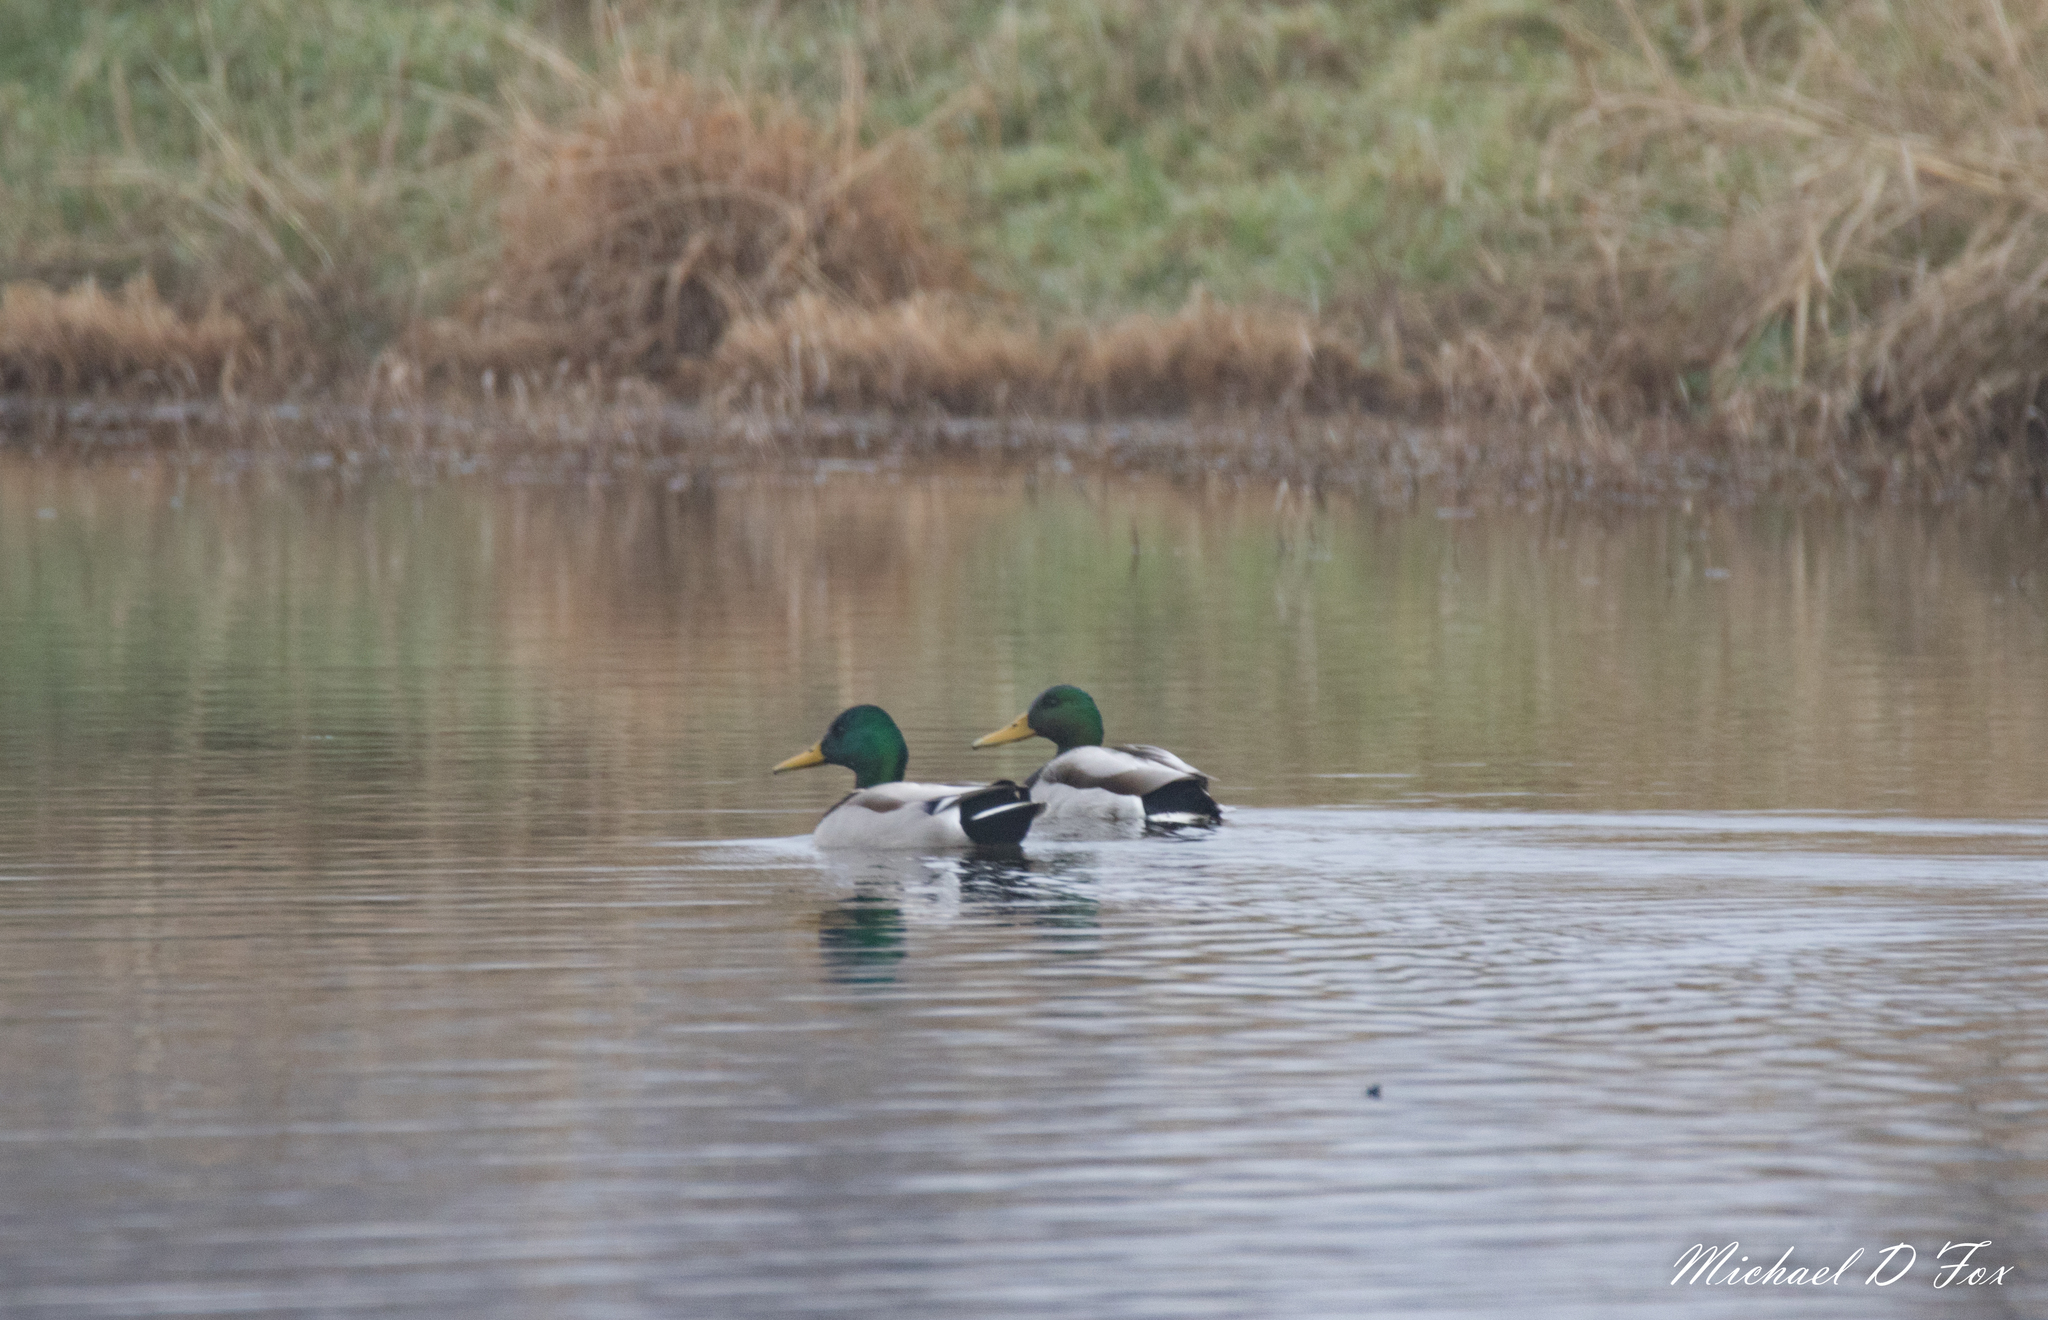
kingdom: Animalia
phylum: Chordata
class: Aves
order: Anseriformes
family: Anatidae
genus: Anas
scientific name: Anas platyrhynchos
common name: Mallard
